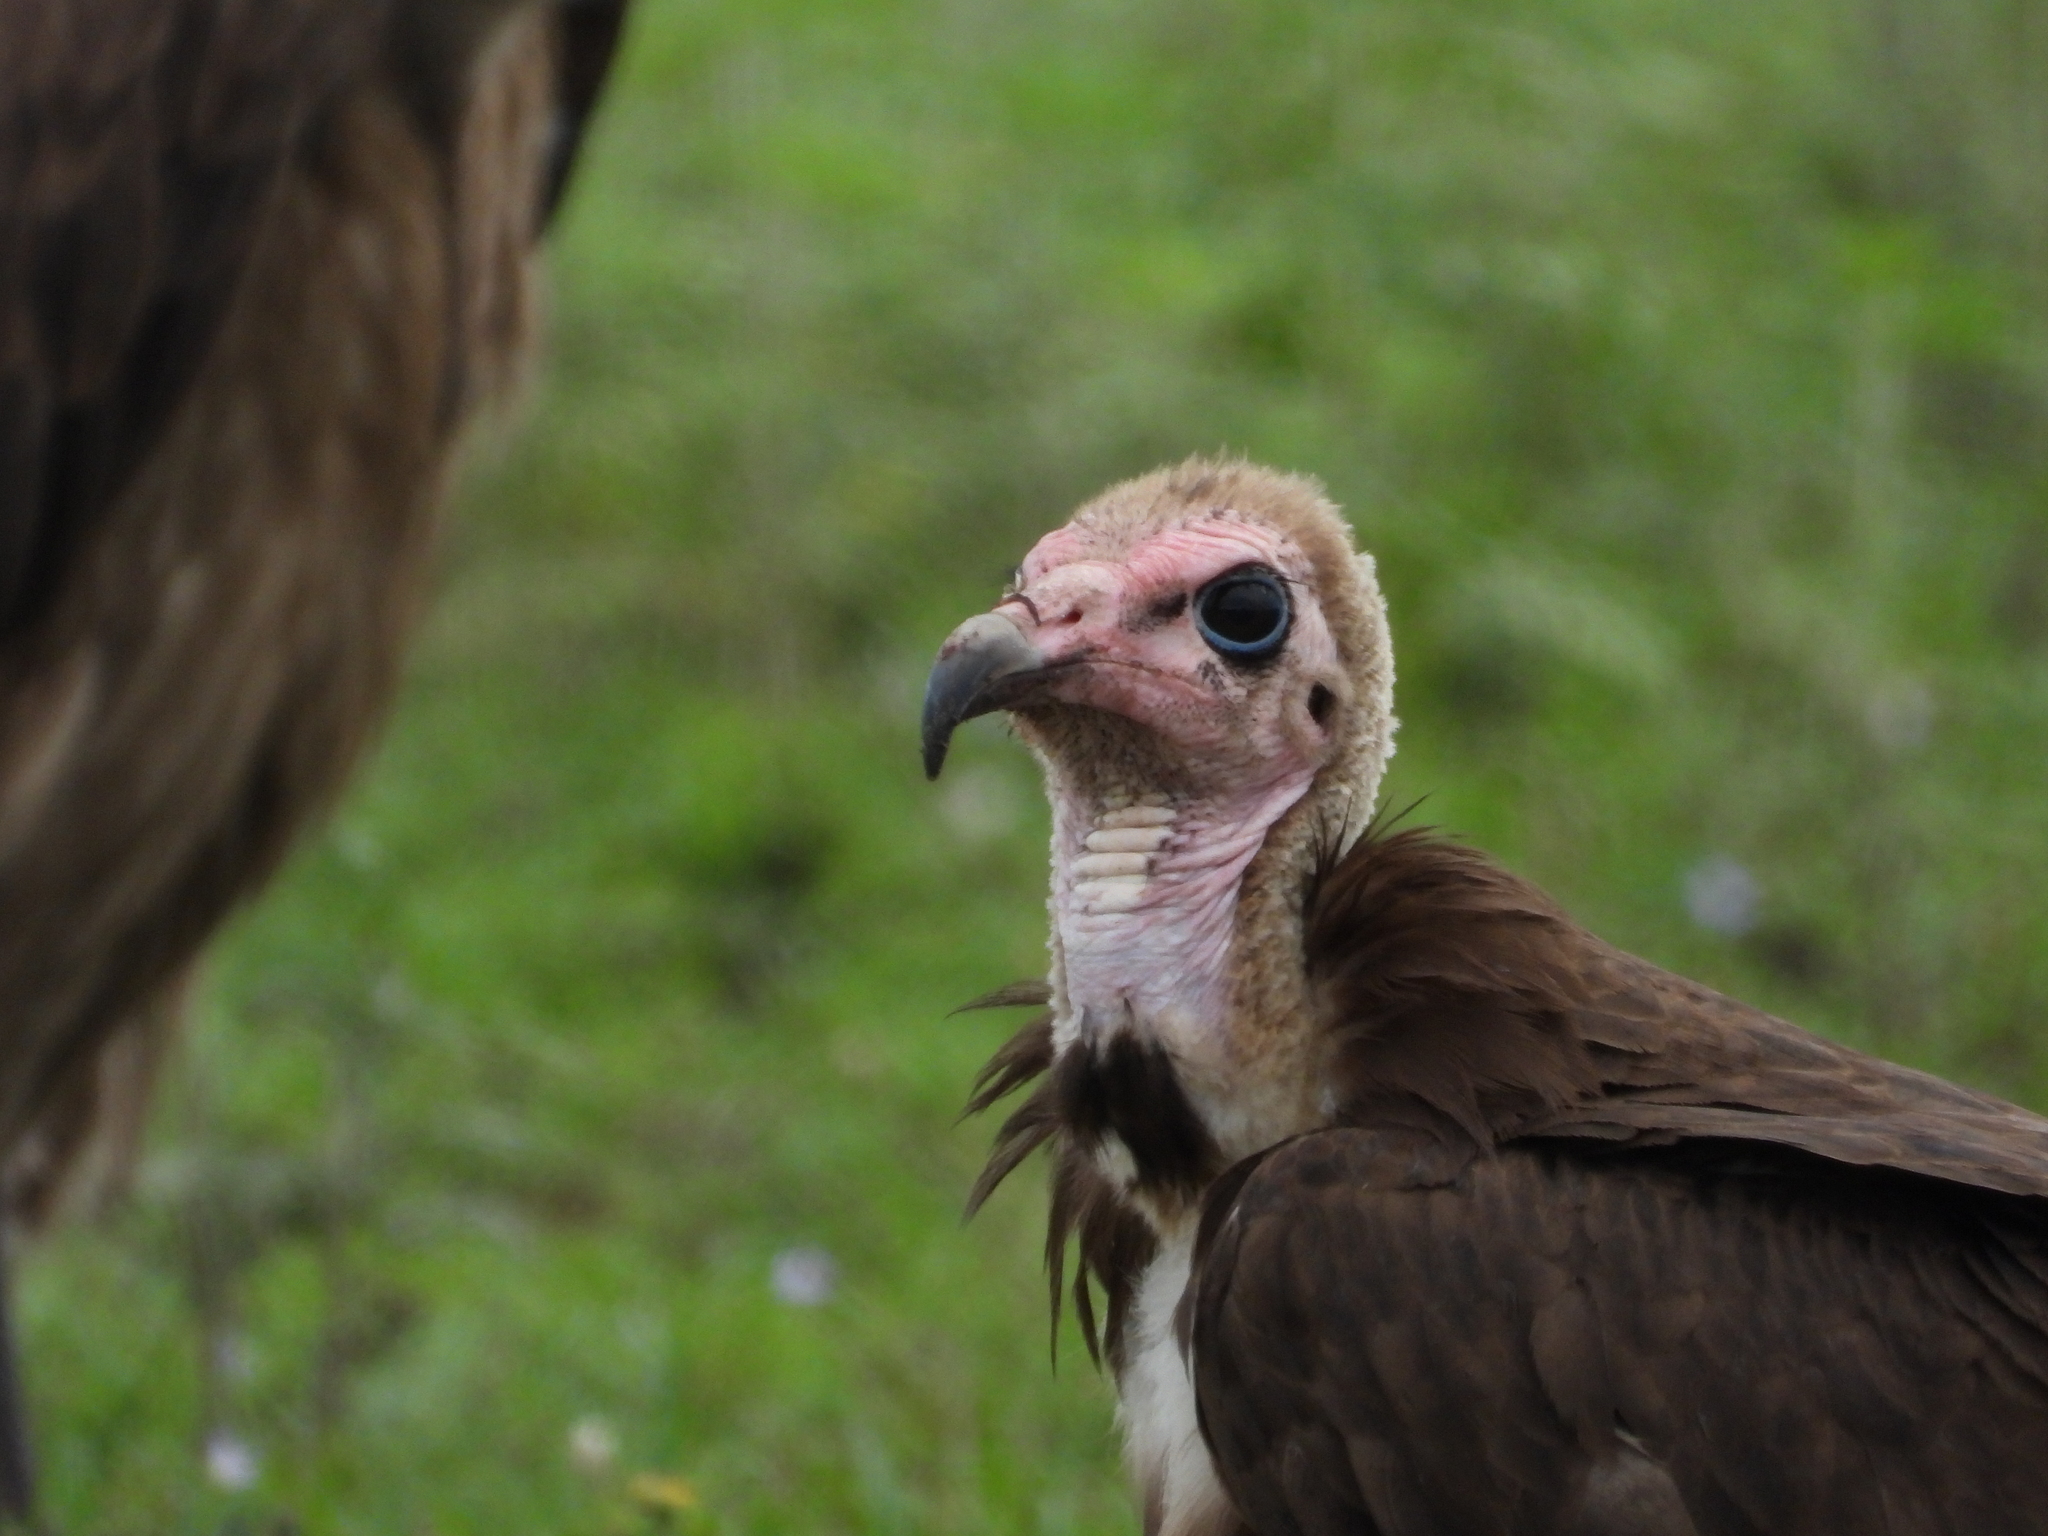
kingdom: Animalia
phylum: Chordata
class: Aves
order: Accipitriformes
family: Accipitridae
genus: Necrosyrtes
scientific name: Necrosyrtes monachus
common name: Hooded vulture
